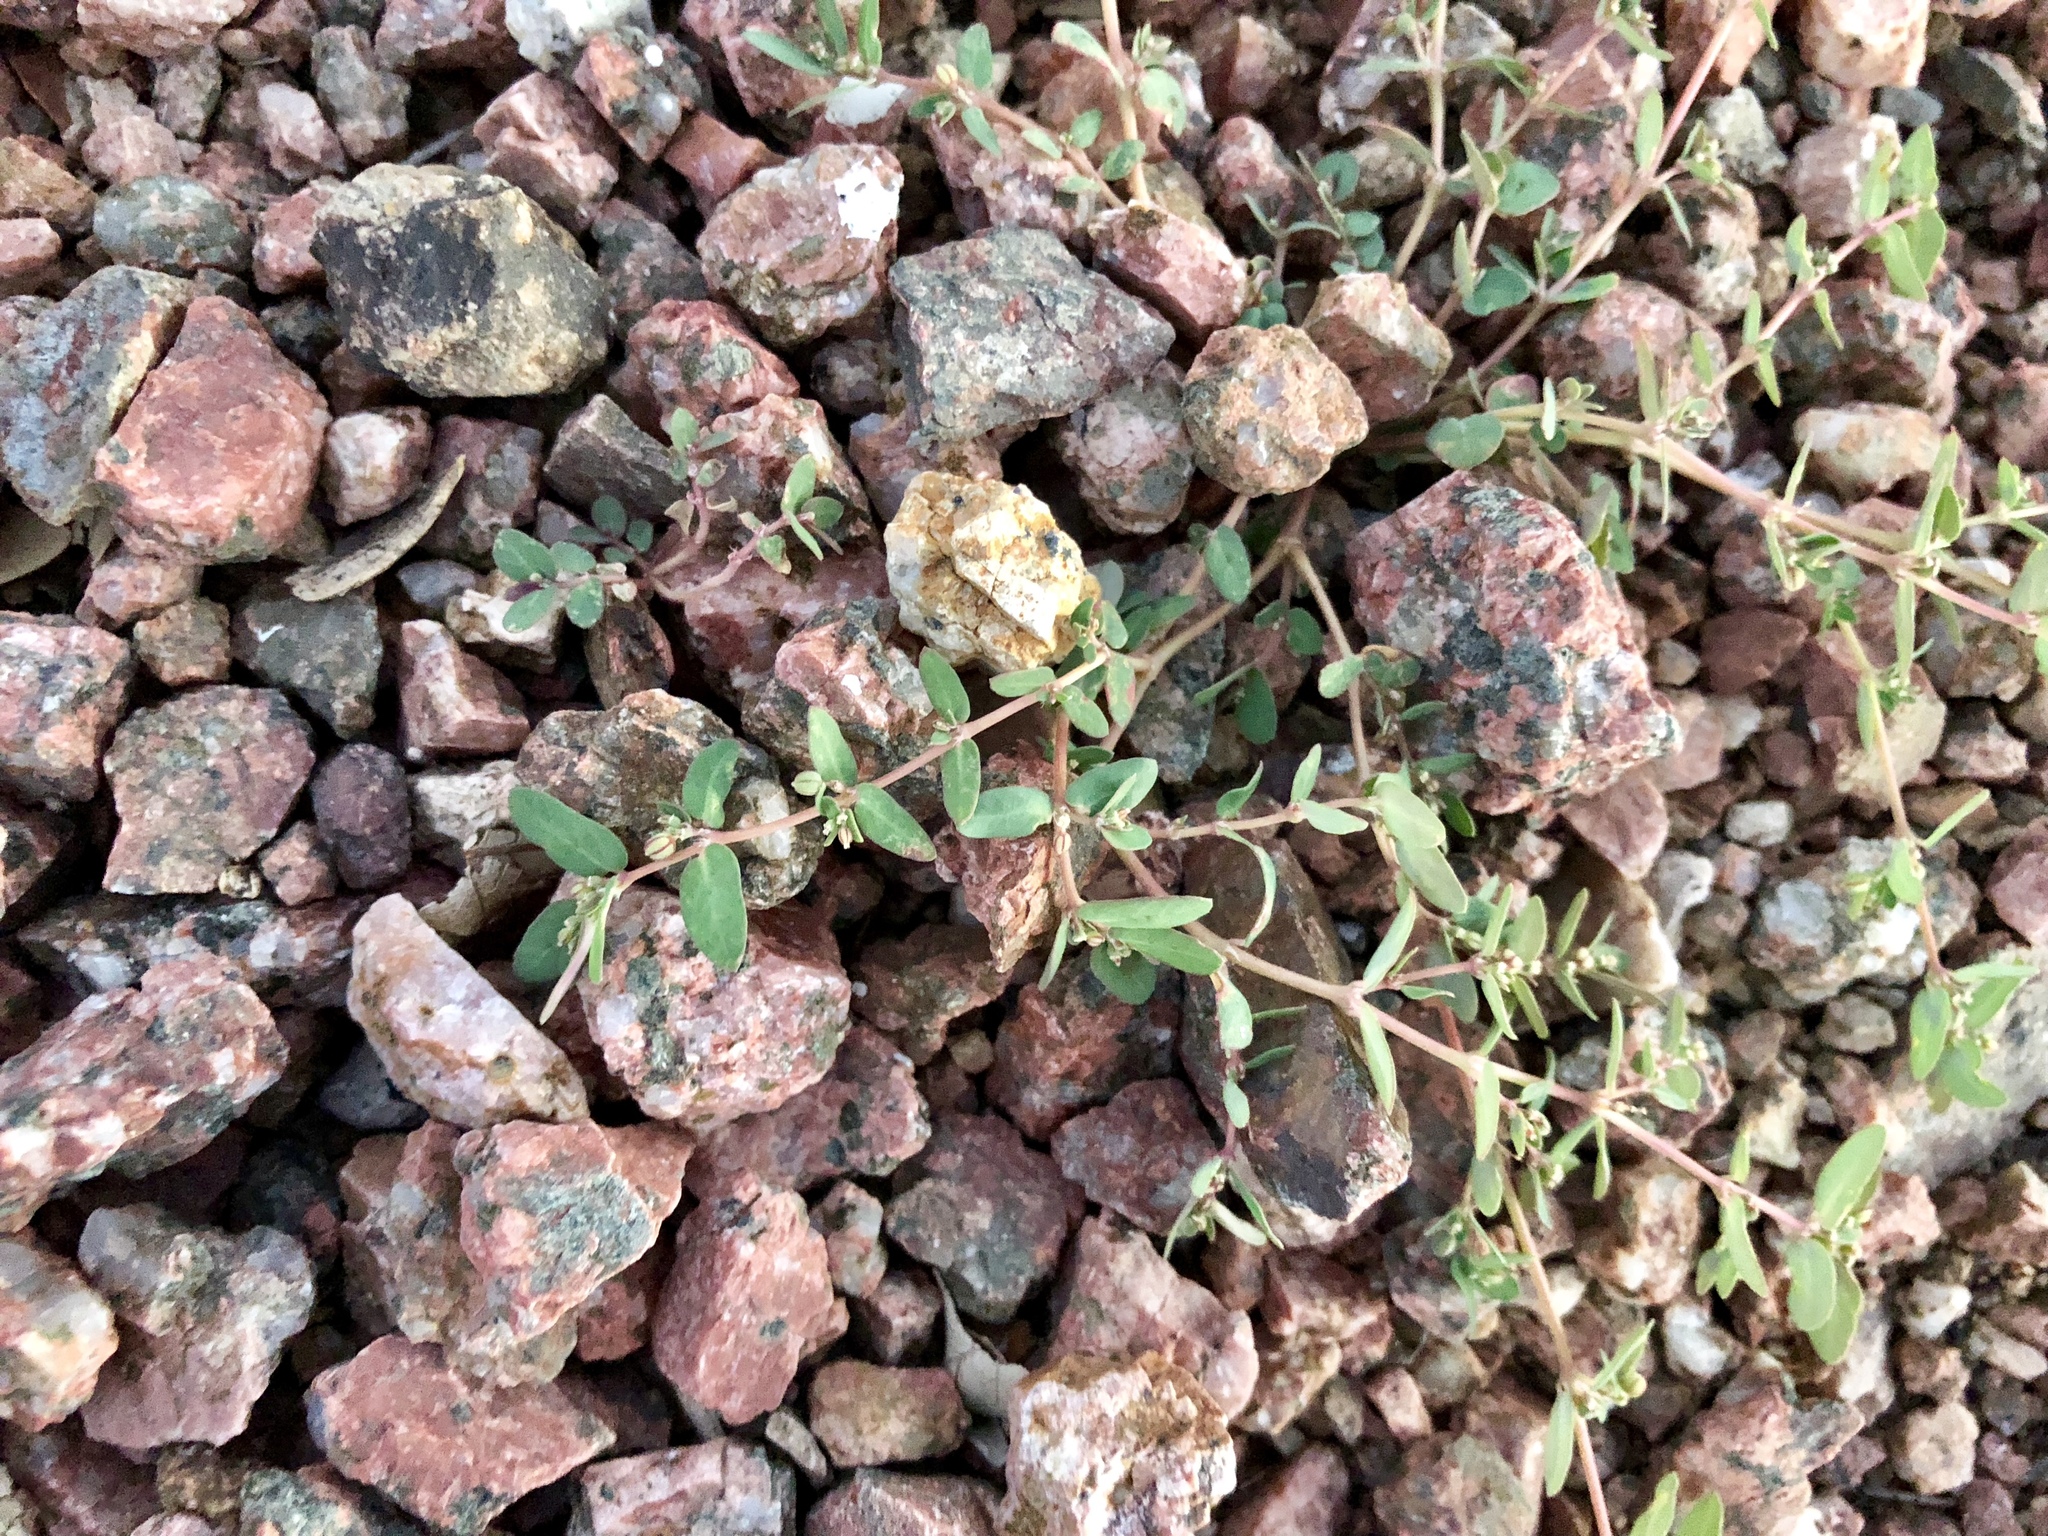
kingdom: Plantae
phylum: Tracheophyta
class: Magnoliopsida
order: Malpighiales
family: Euphorbiaceae
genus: Euphorbia
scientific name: Euphorbia abramsiana
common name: Abram's spurge
